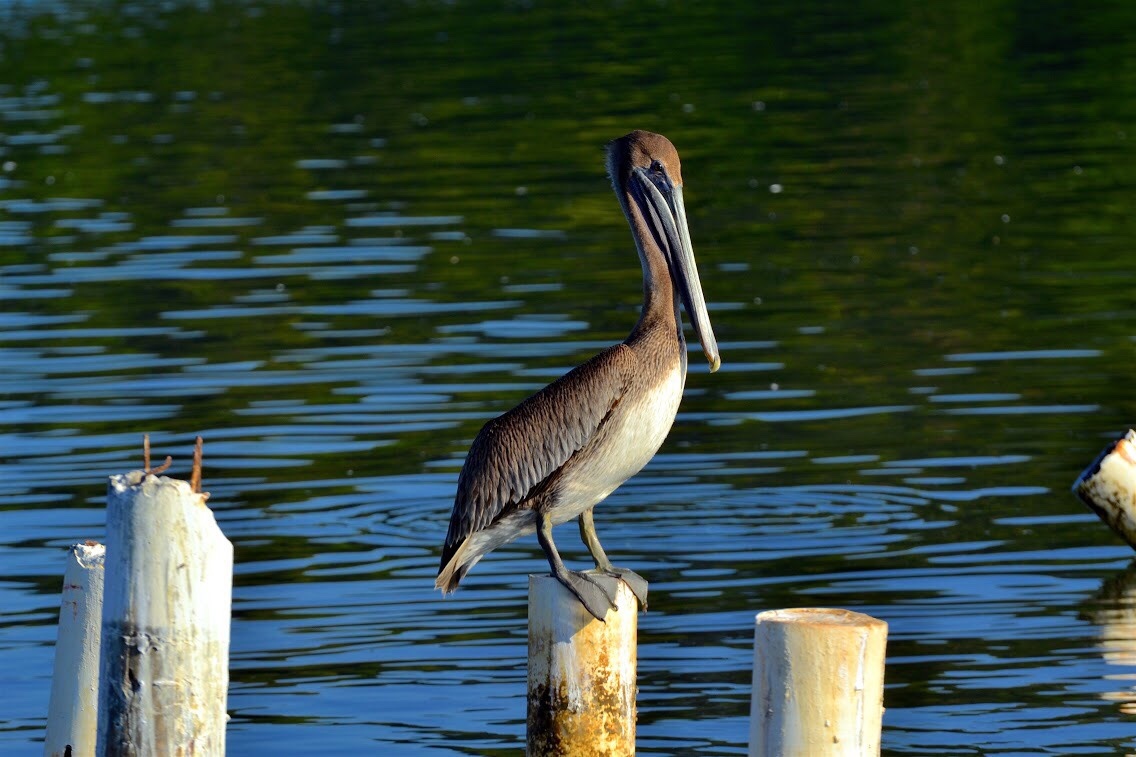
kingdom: Animalia
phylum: Chordata
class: Aves
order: Pelecaniformes
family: Pelecanidae
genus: Pelecanus
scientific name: Pelecanus occidentalis
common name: Brown pelican
